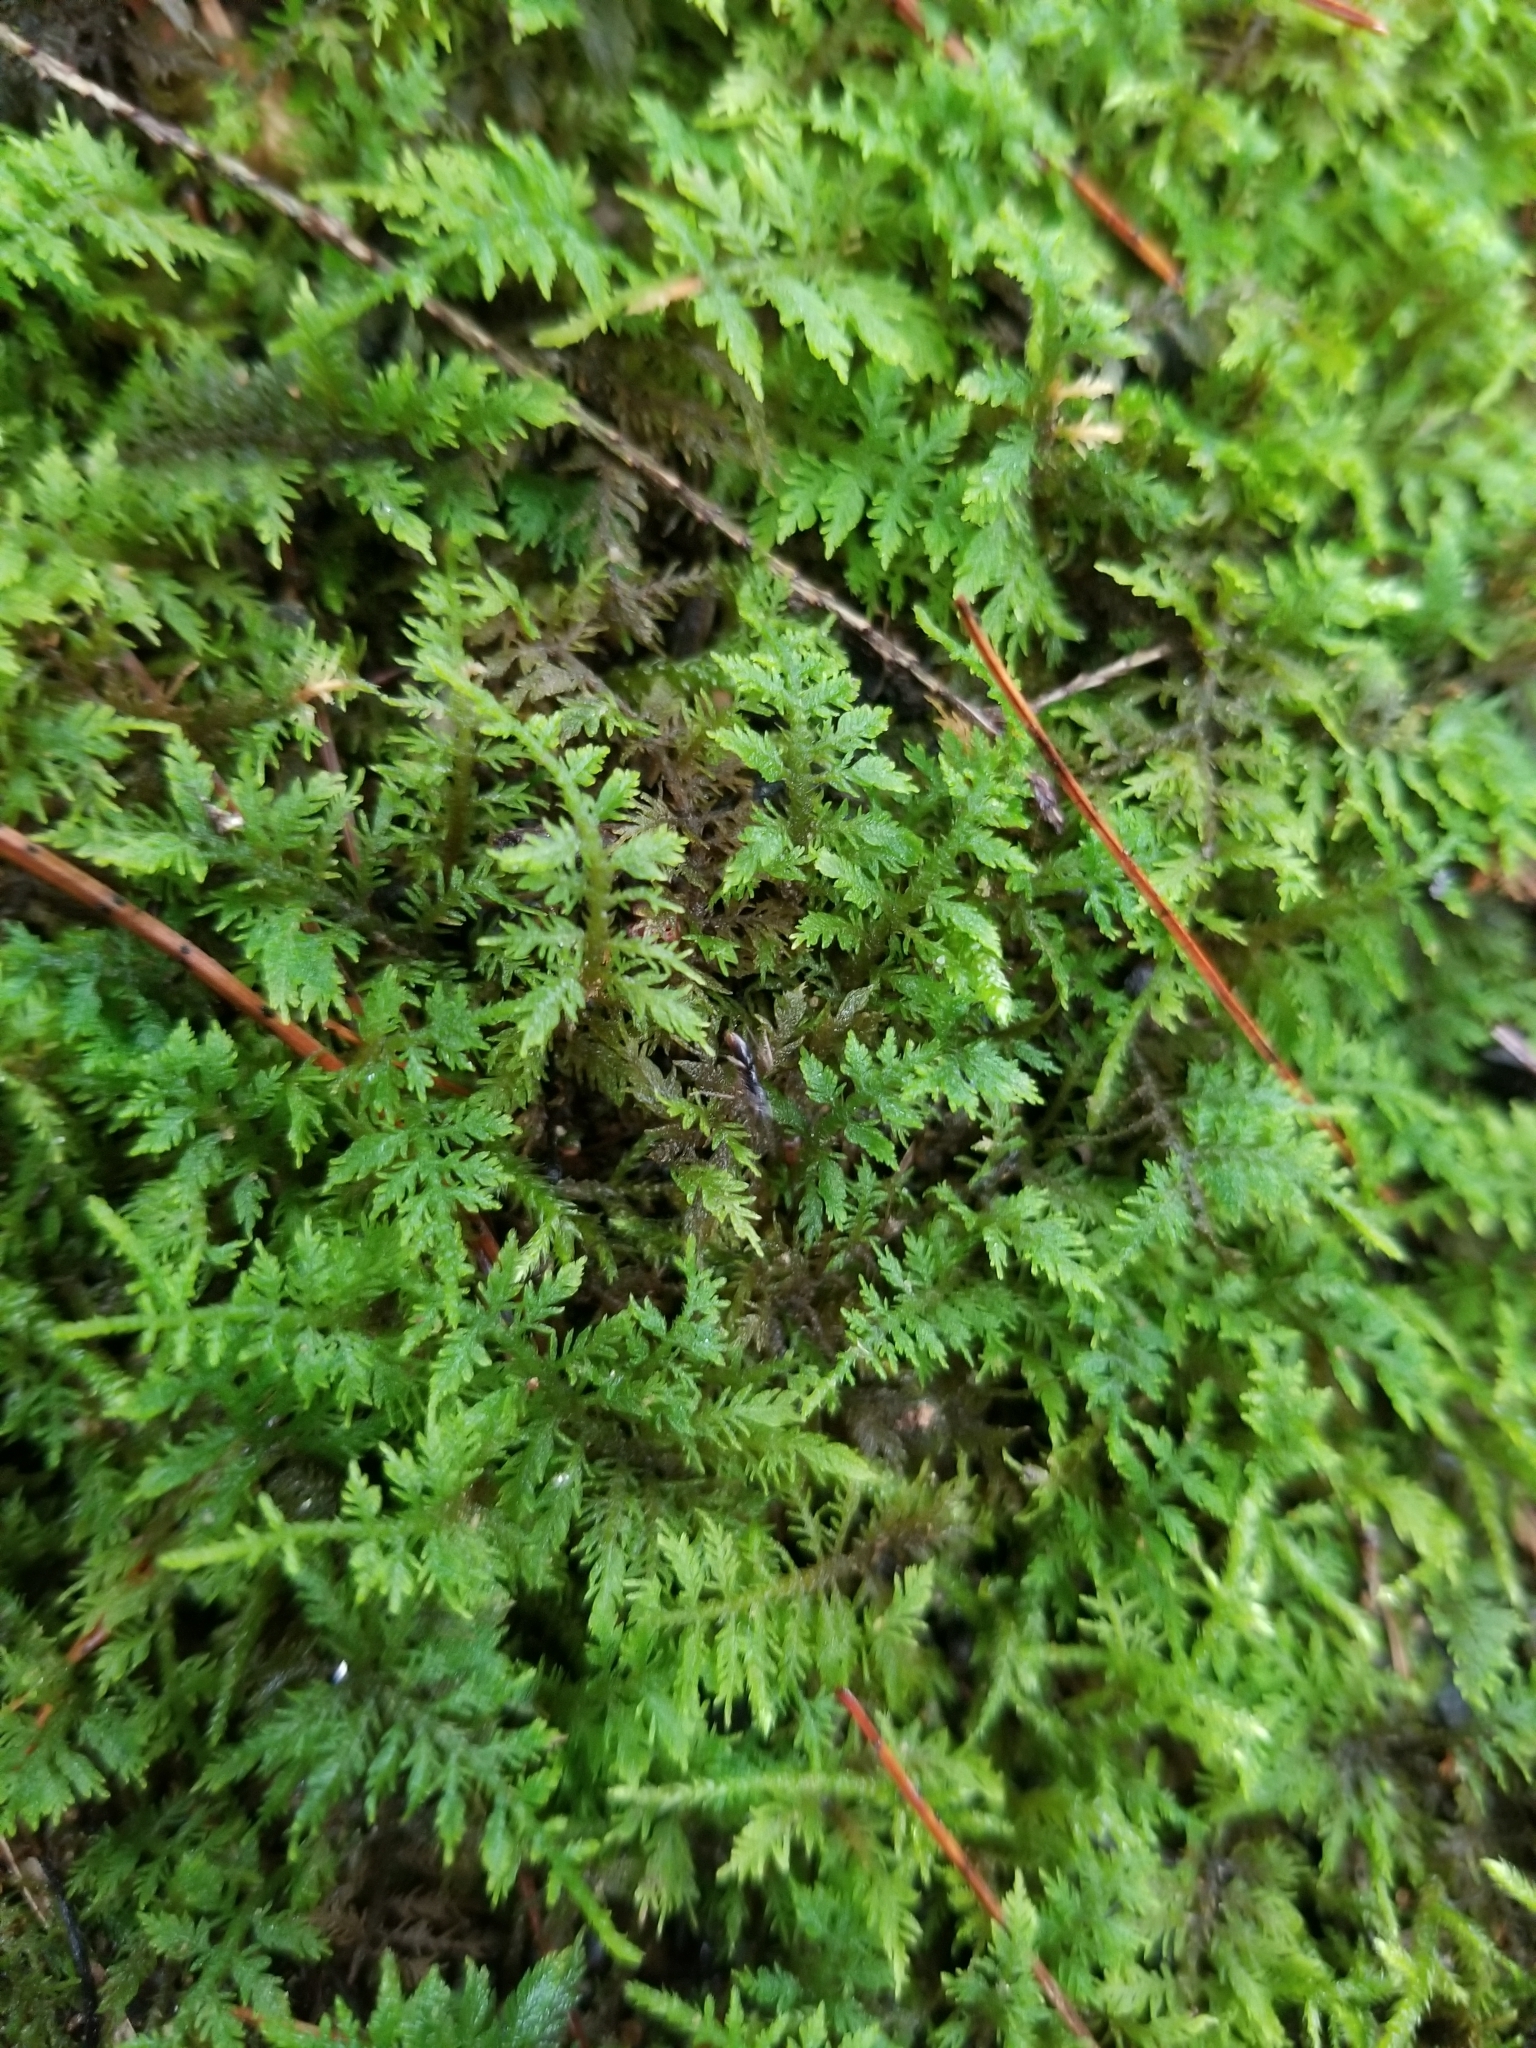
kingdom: Plantae
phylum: Bryophyta
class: Bryopsida
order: Hypnales
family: Thuidiaceae
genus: Thuidium
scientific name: Thuidium delicatulum
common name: Delicate fern moss
